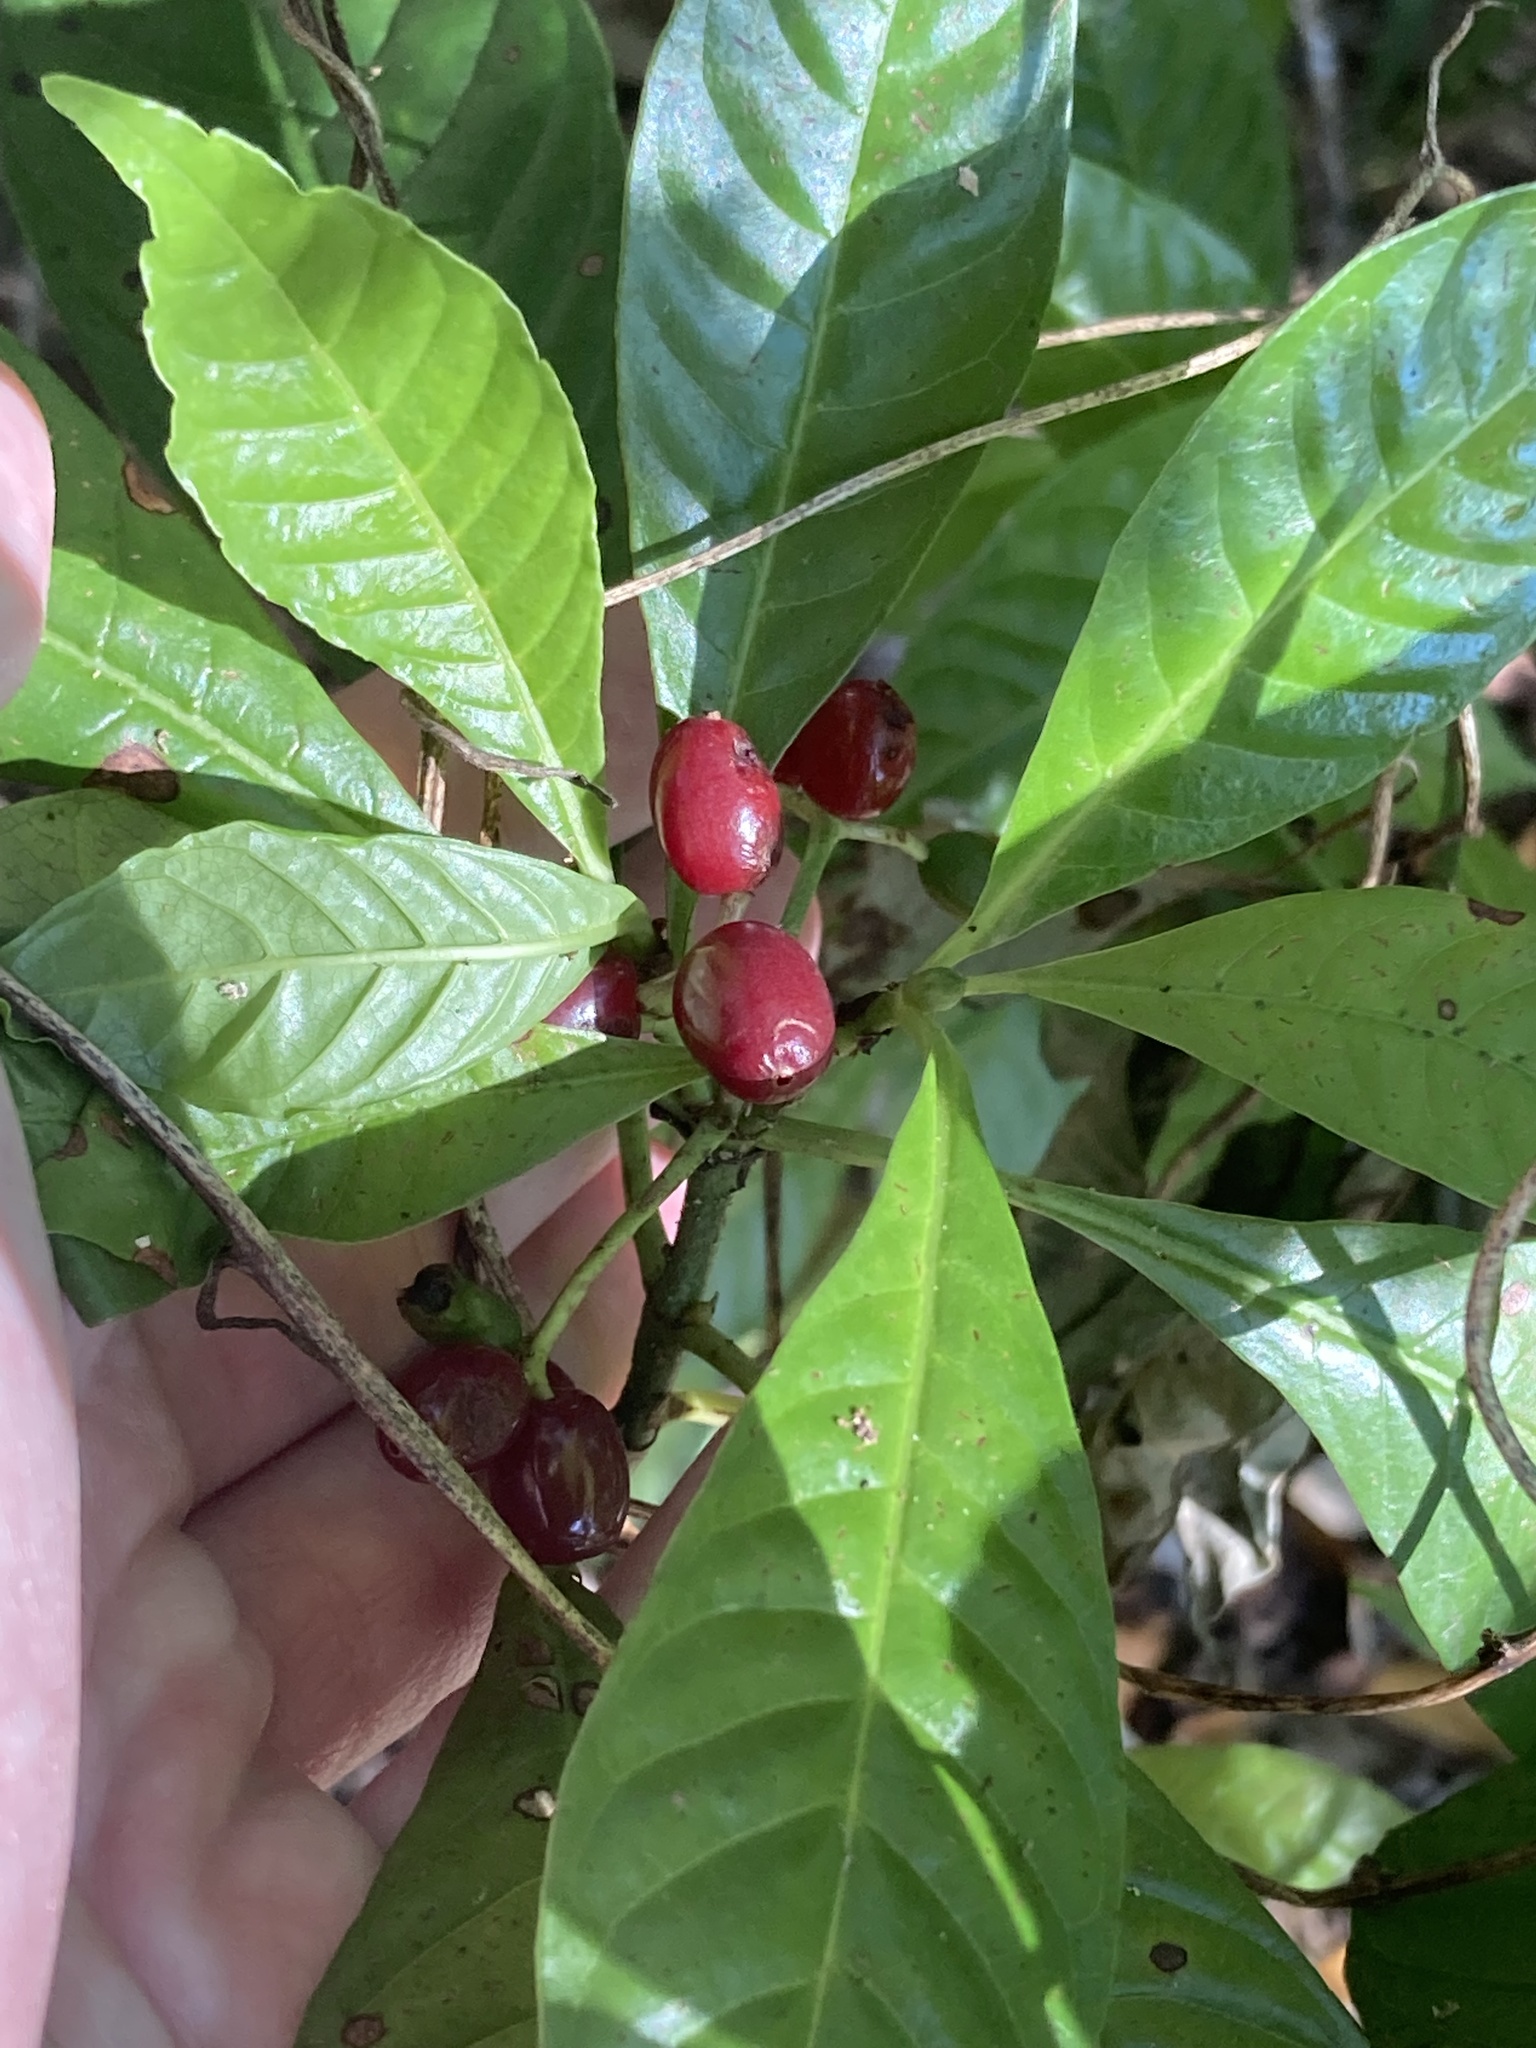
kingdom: Plantae
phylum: Tracheophyta
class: Magnoliopsida
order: Gentianales
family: Rubiaceae
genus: Psychotria
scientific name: Psychotria nervosa
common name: Bastard cankerberry
